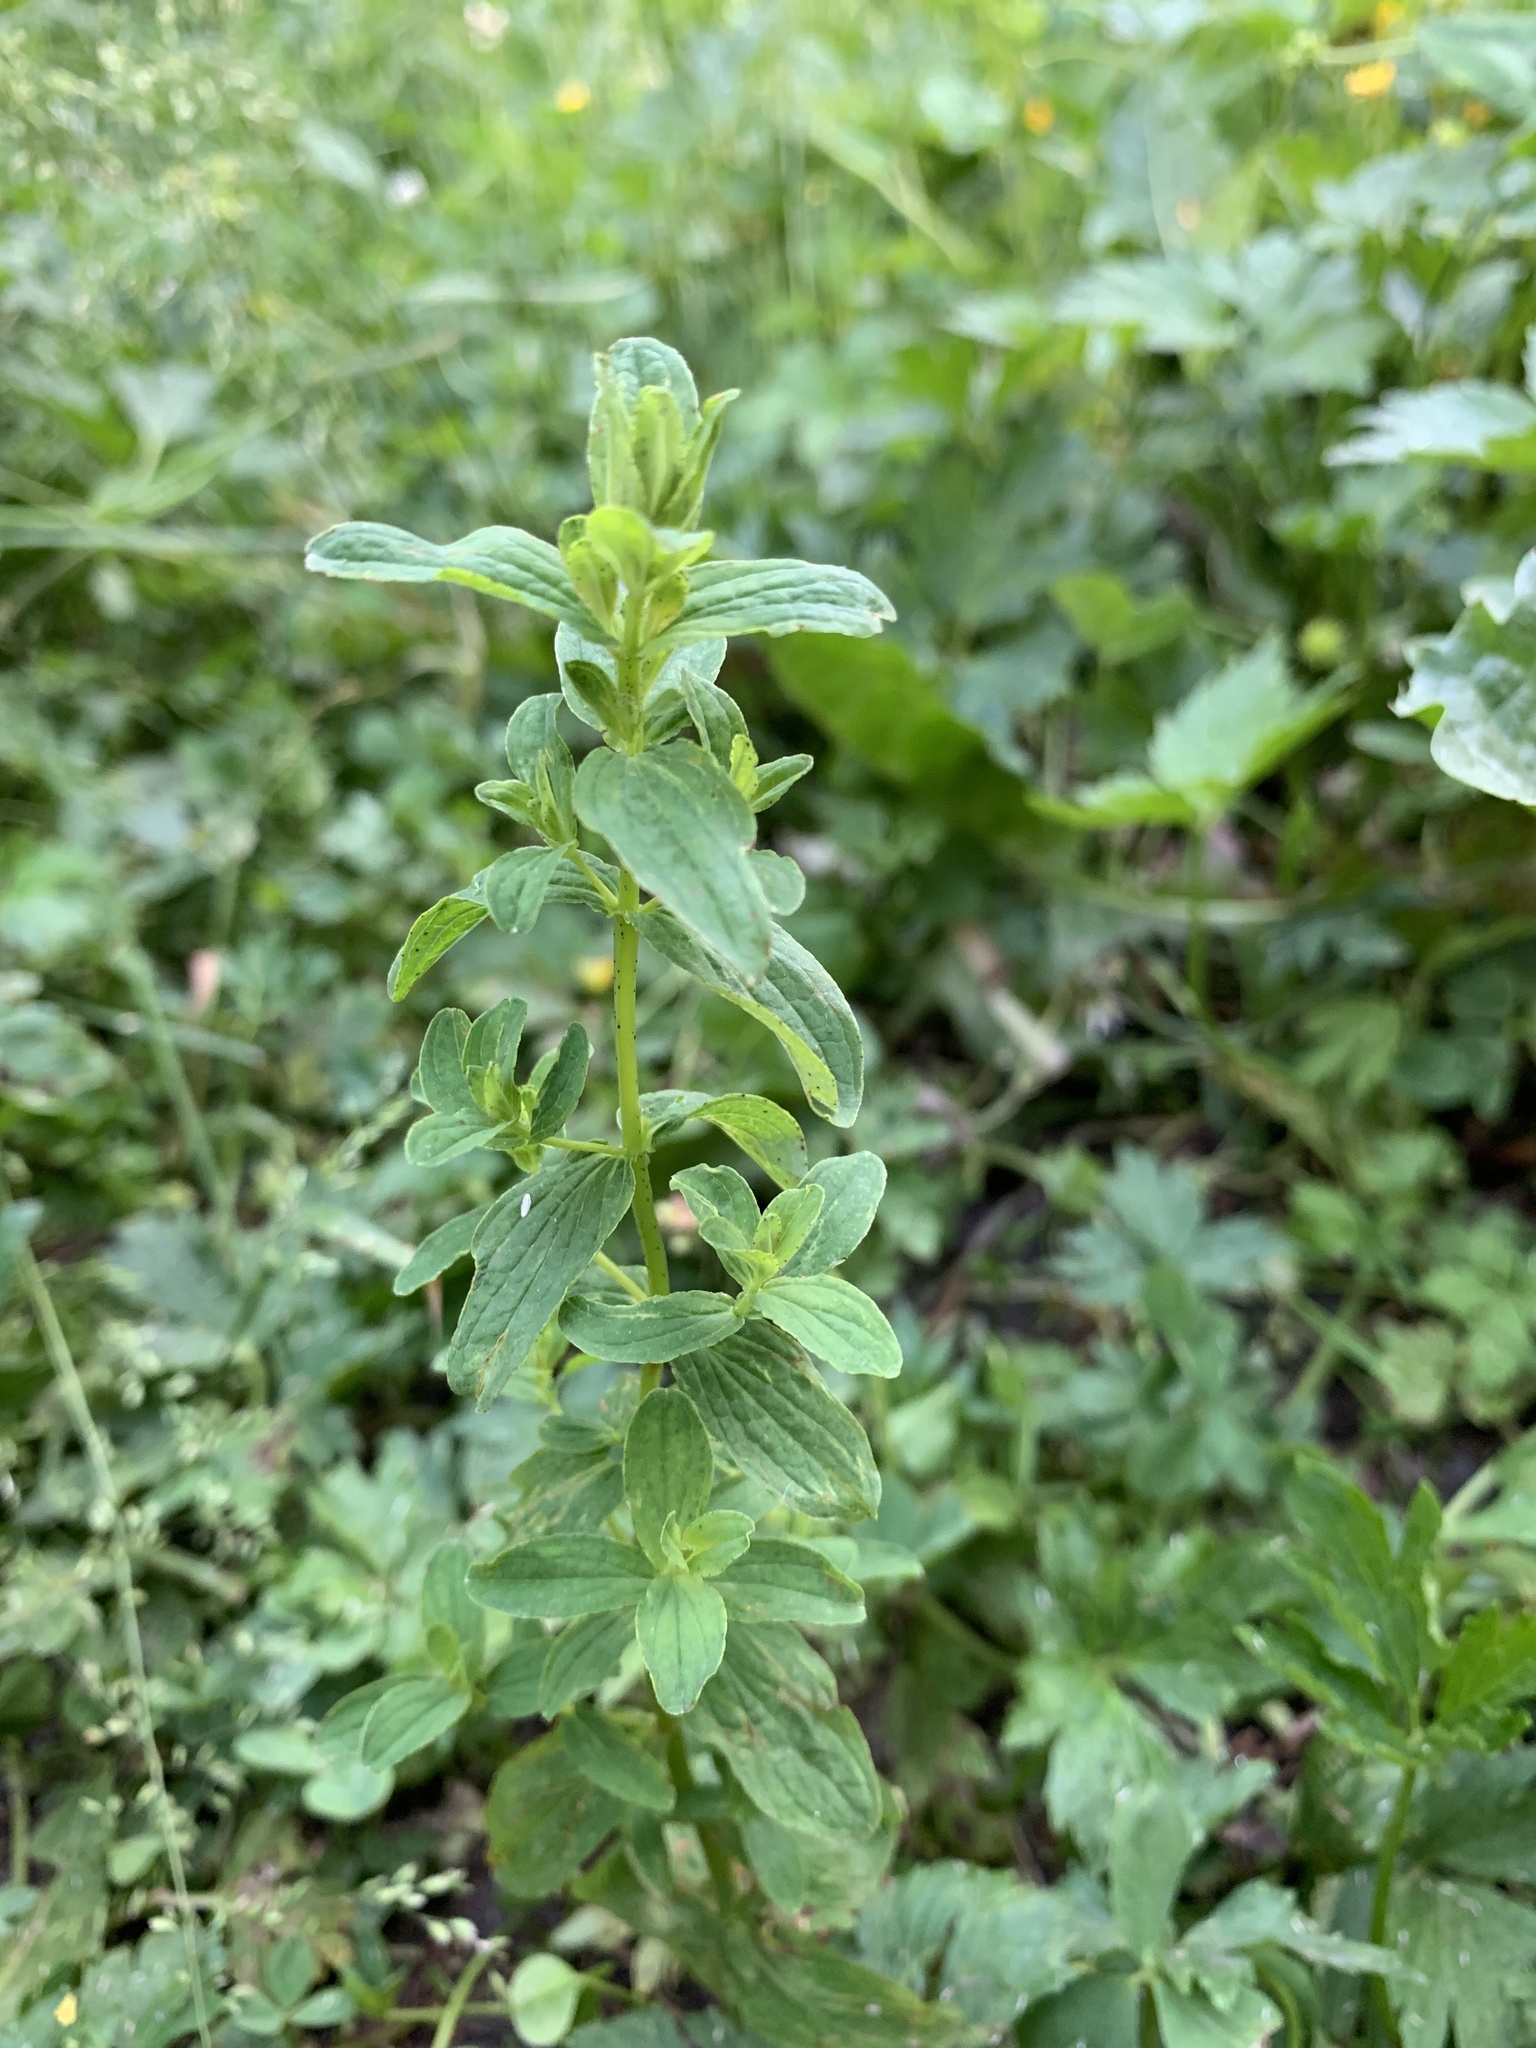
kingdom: Plantae
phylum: Tracheophyta
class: Magnoliopsida
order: Malpighiales
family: Hypericaceae
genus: Hypericum
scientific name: Hypericum maculatum
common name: Imperforate st. john's-wort
